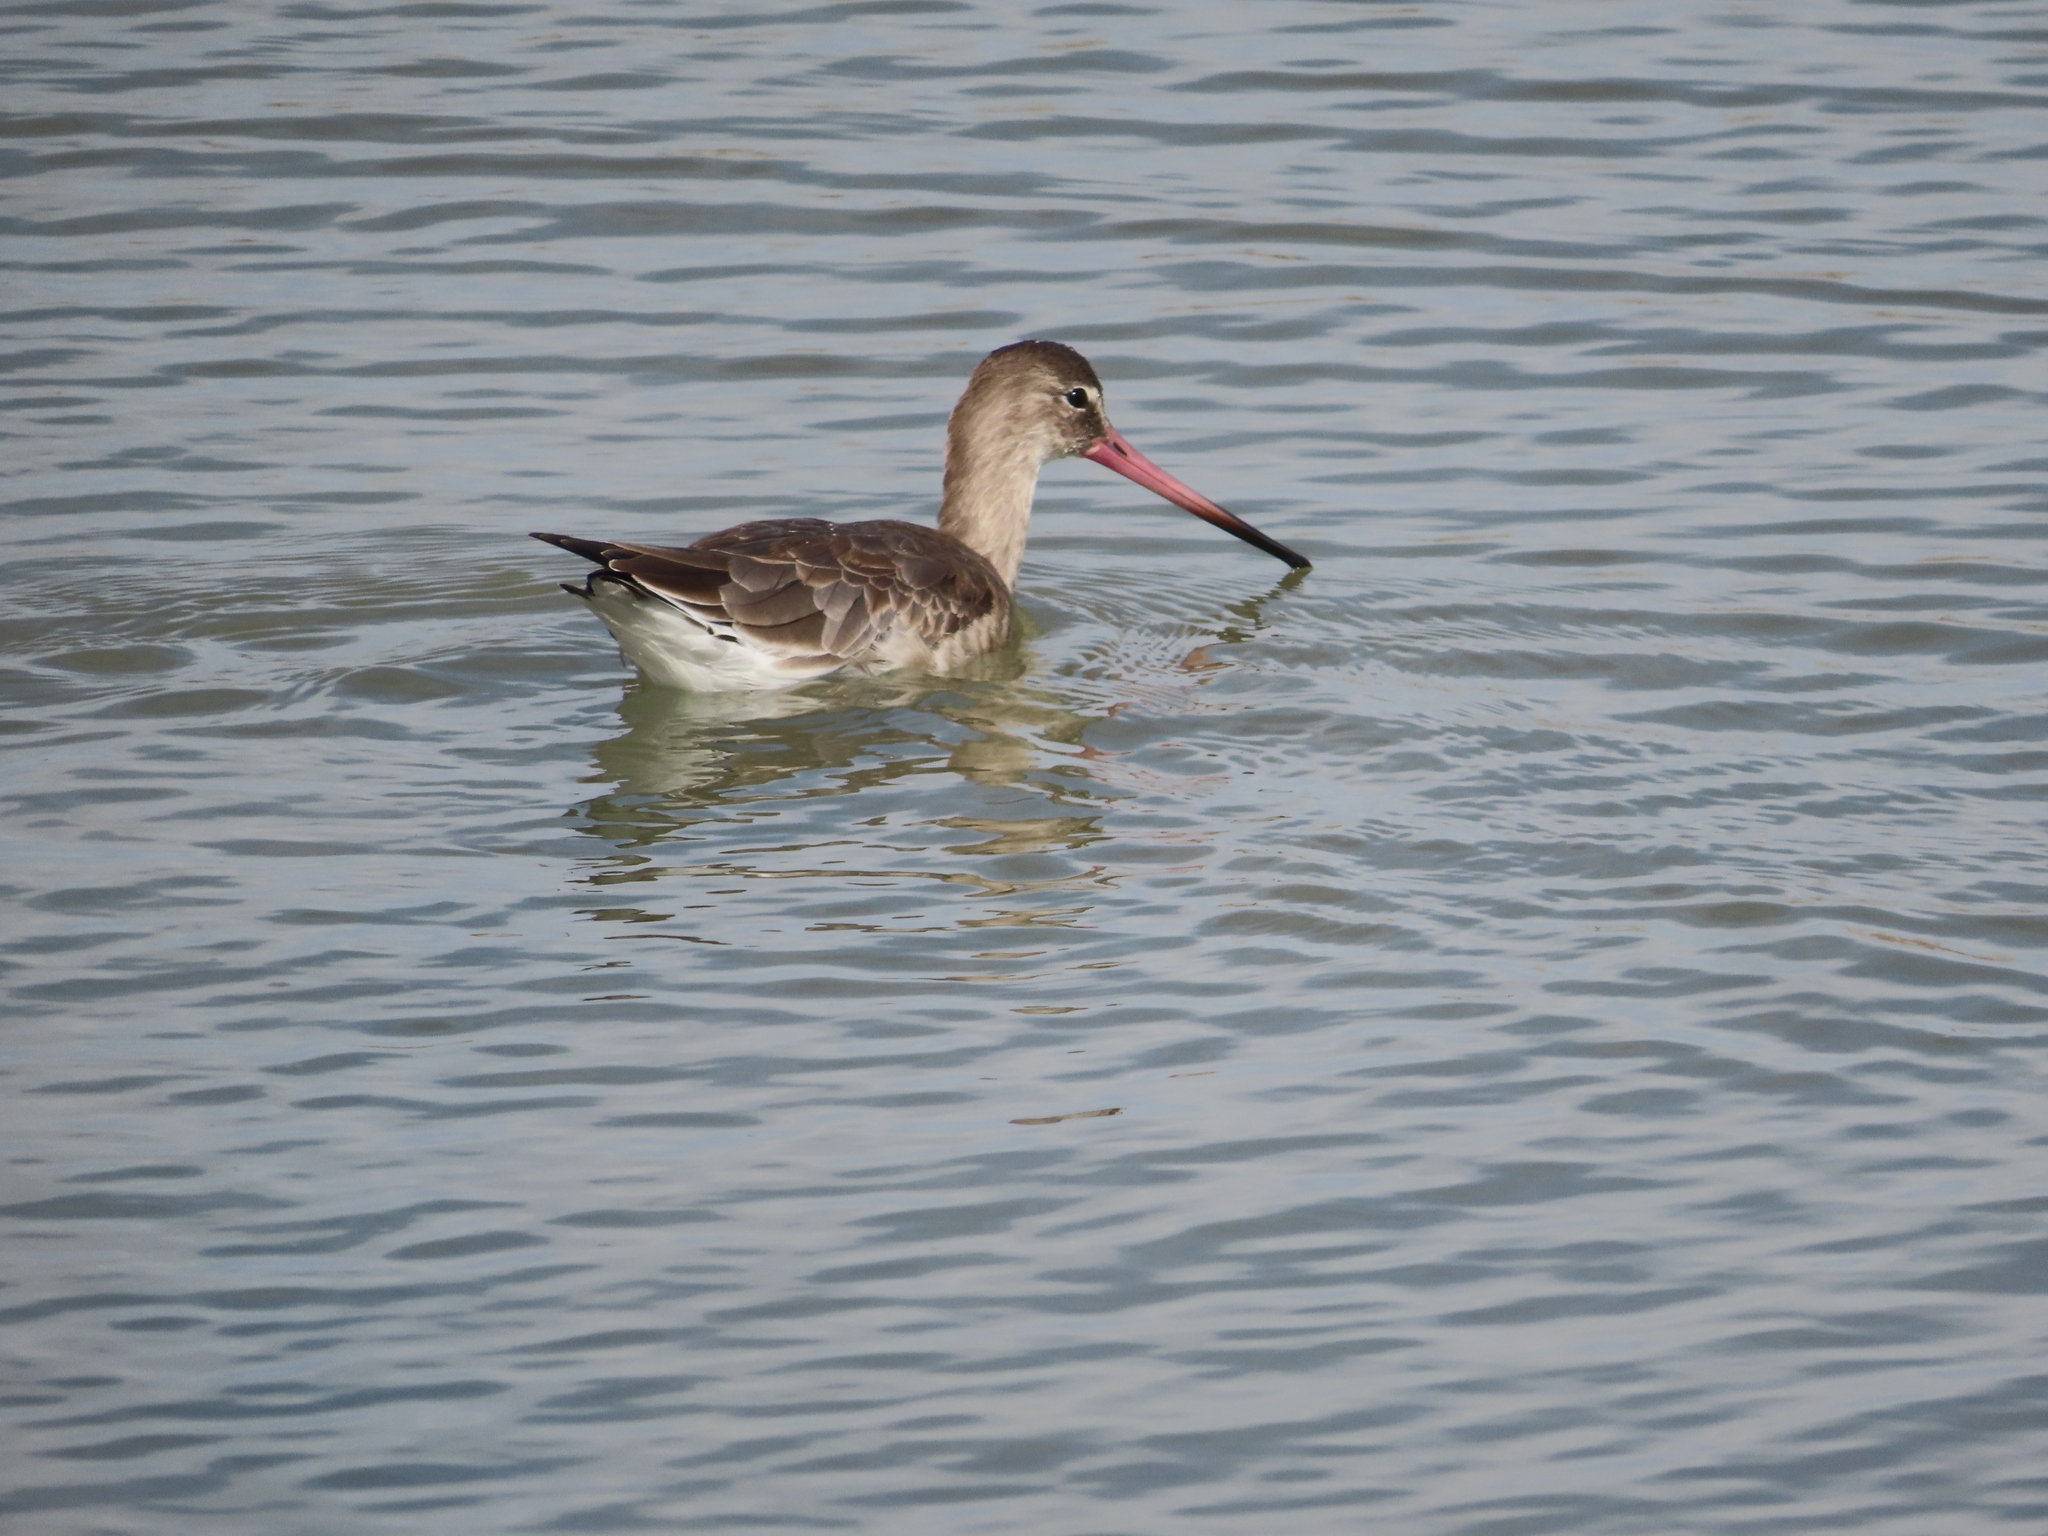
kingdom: Animalia
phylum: Chordata
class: Aves
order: Charadriiformes
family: Scolopacidae
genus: Limosa
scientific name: Limosa limosa
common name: Black-tailed godwit
